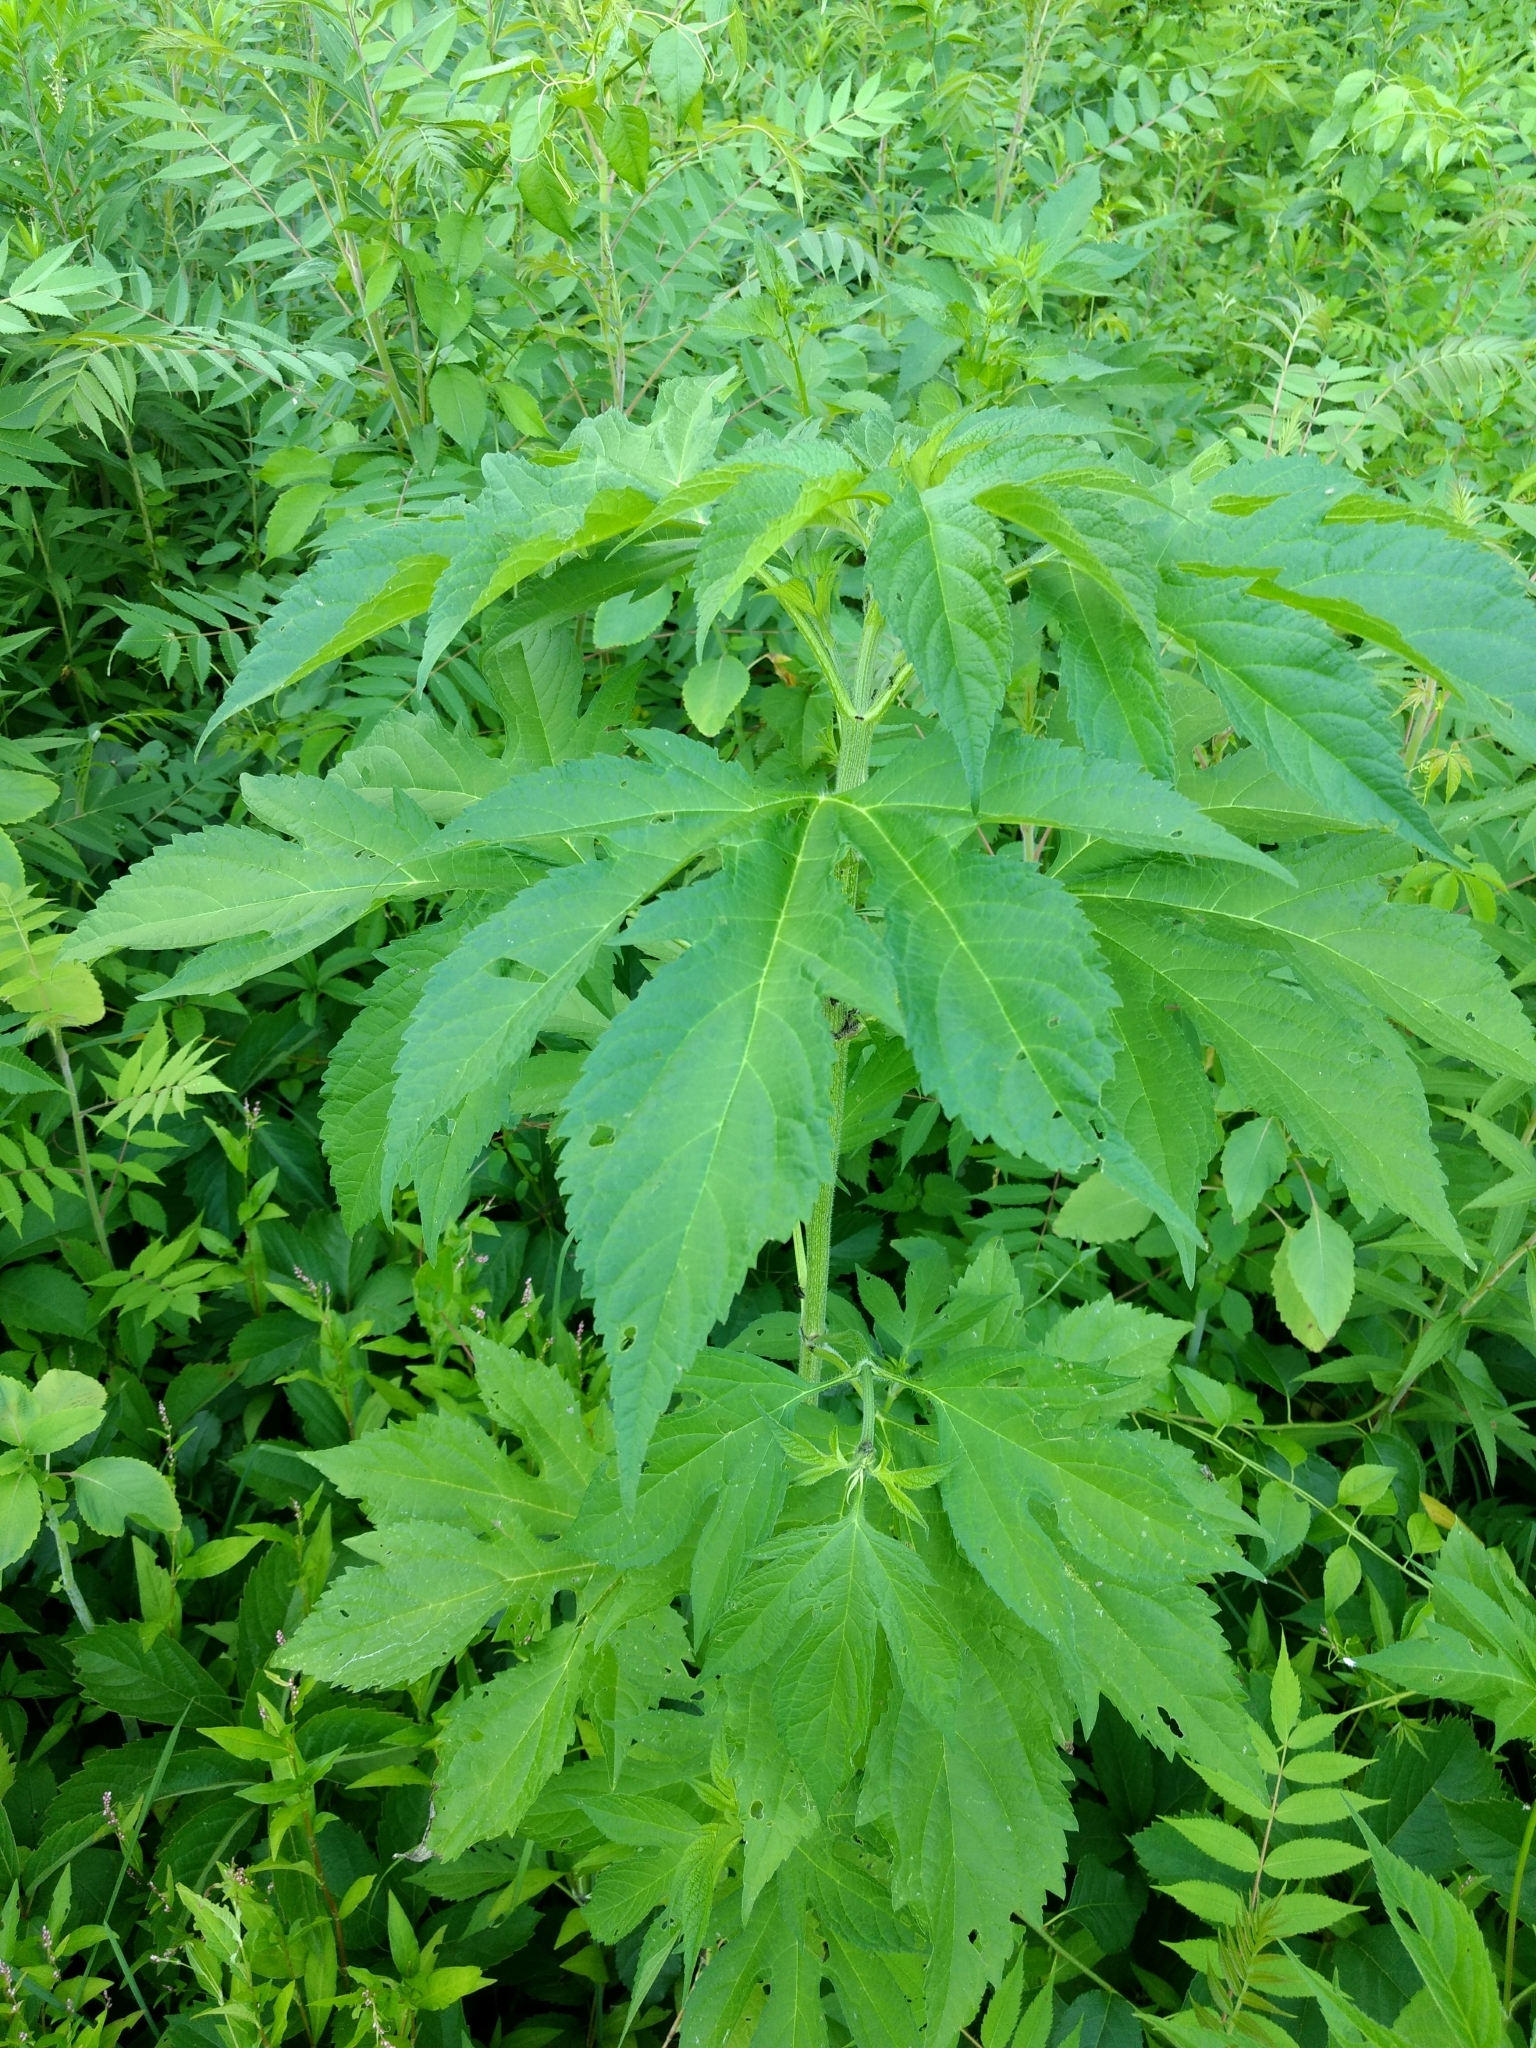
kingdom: Plantae
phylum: Tracheophyta
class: Magnoliopsida
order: Asterales
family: Asteraceae
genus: Ambrosia
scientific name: Ambrosia trifida
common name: Giant ragweed
